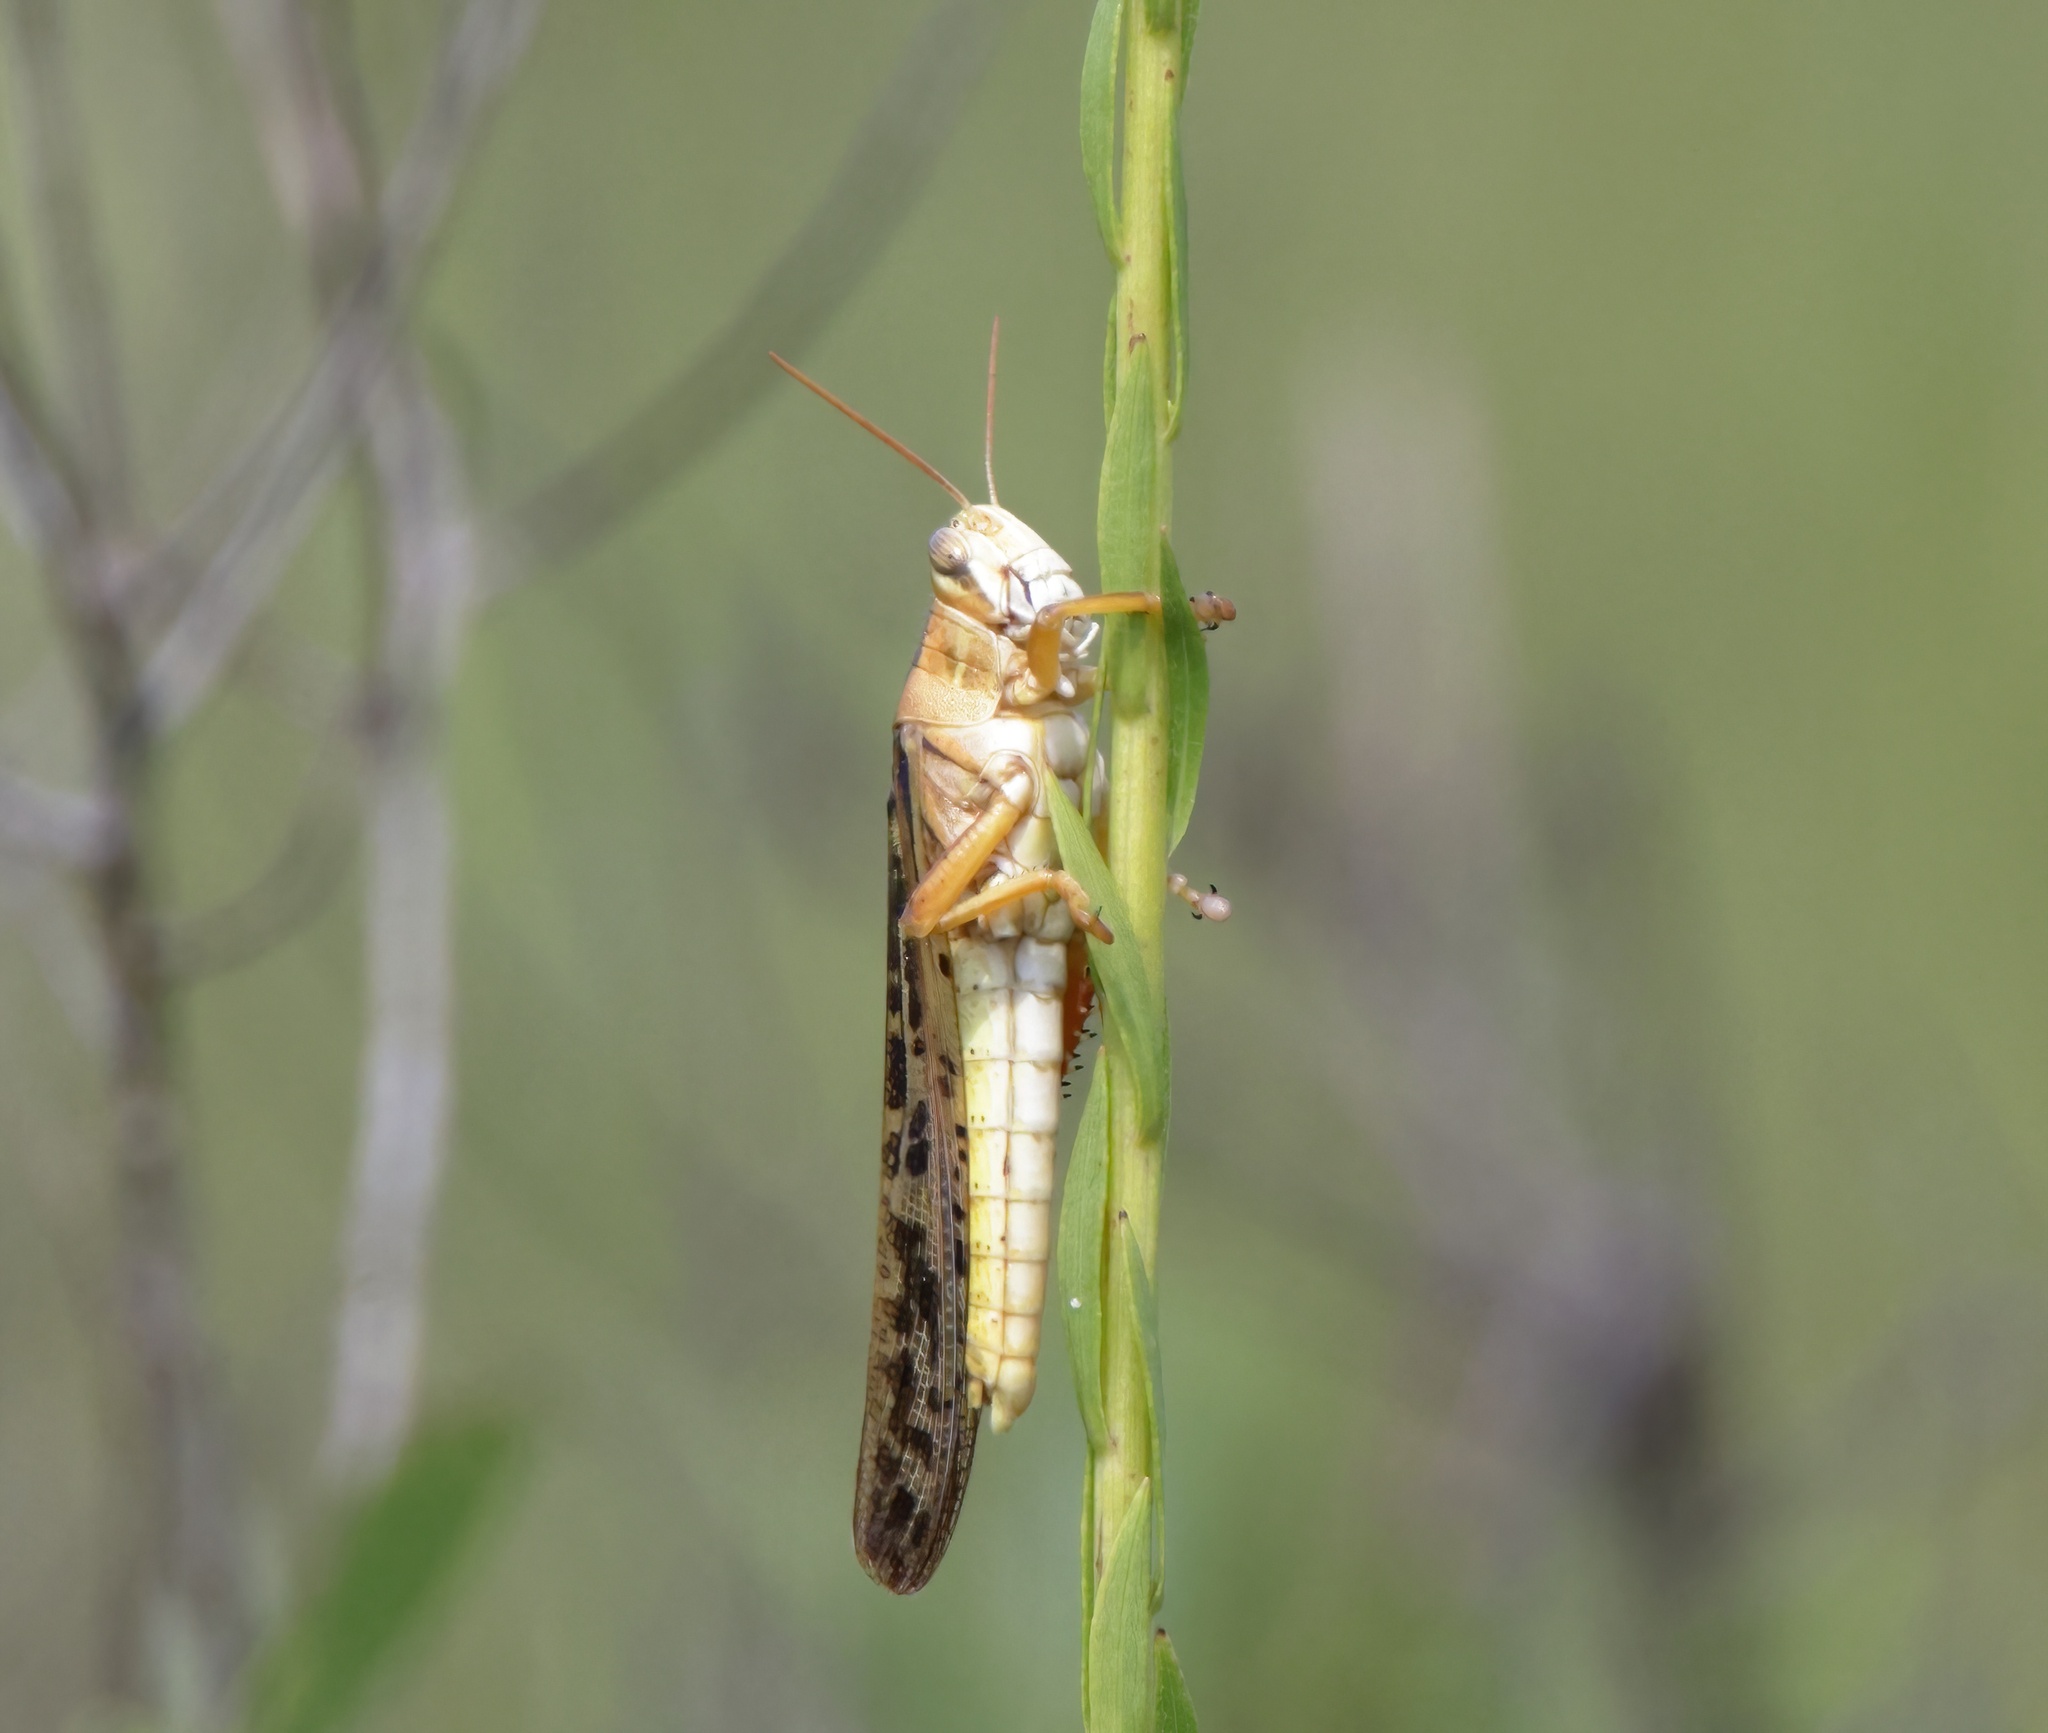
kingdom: Animalia
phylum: Arthropoda
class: Insecta
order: Orthoptera
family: Acrididae
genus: Schistocerca
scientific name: Schistocerca americana
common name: American bird locust
